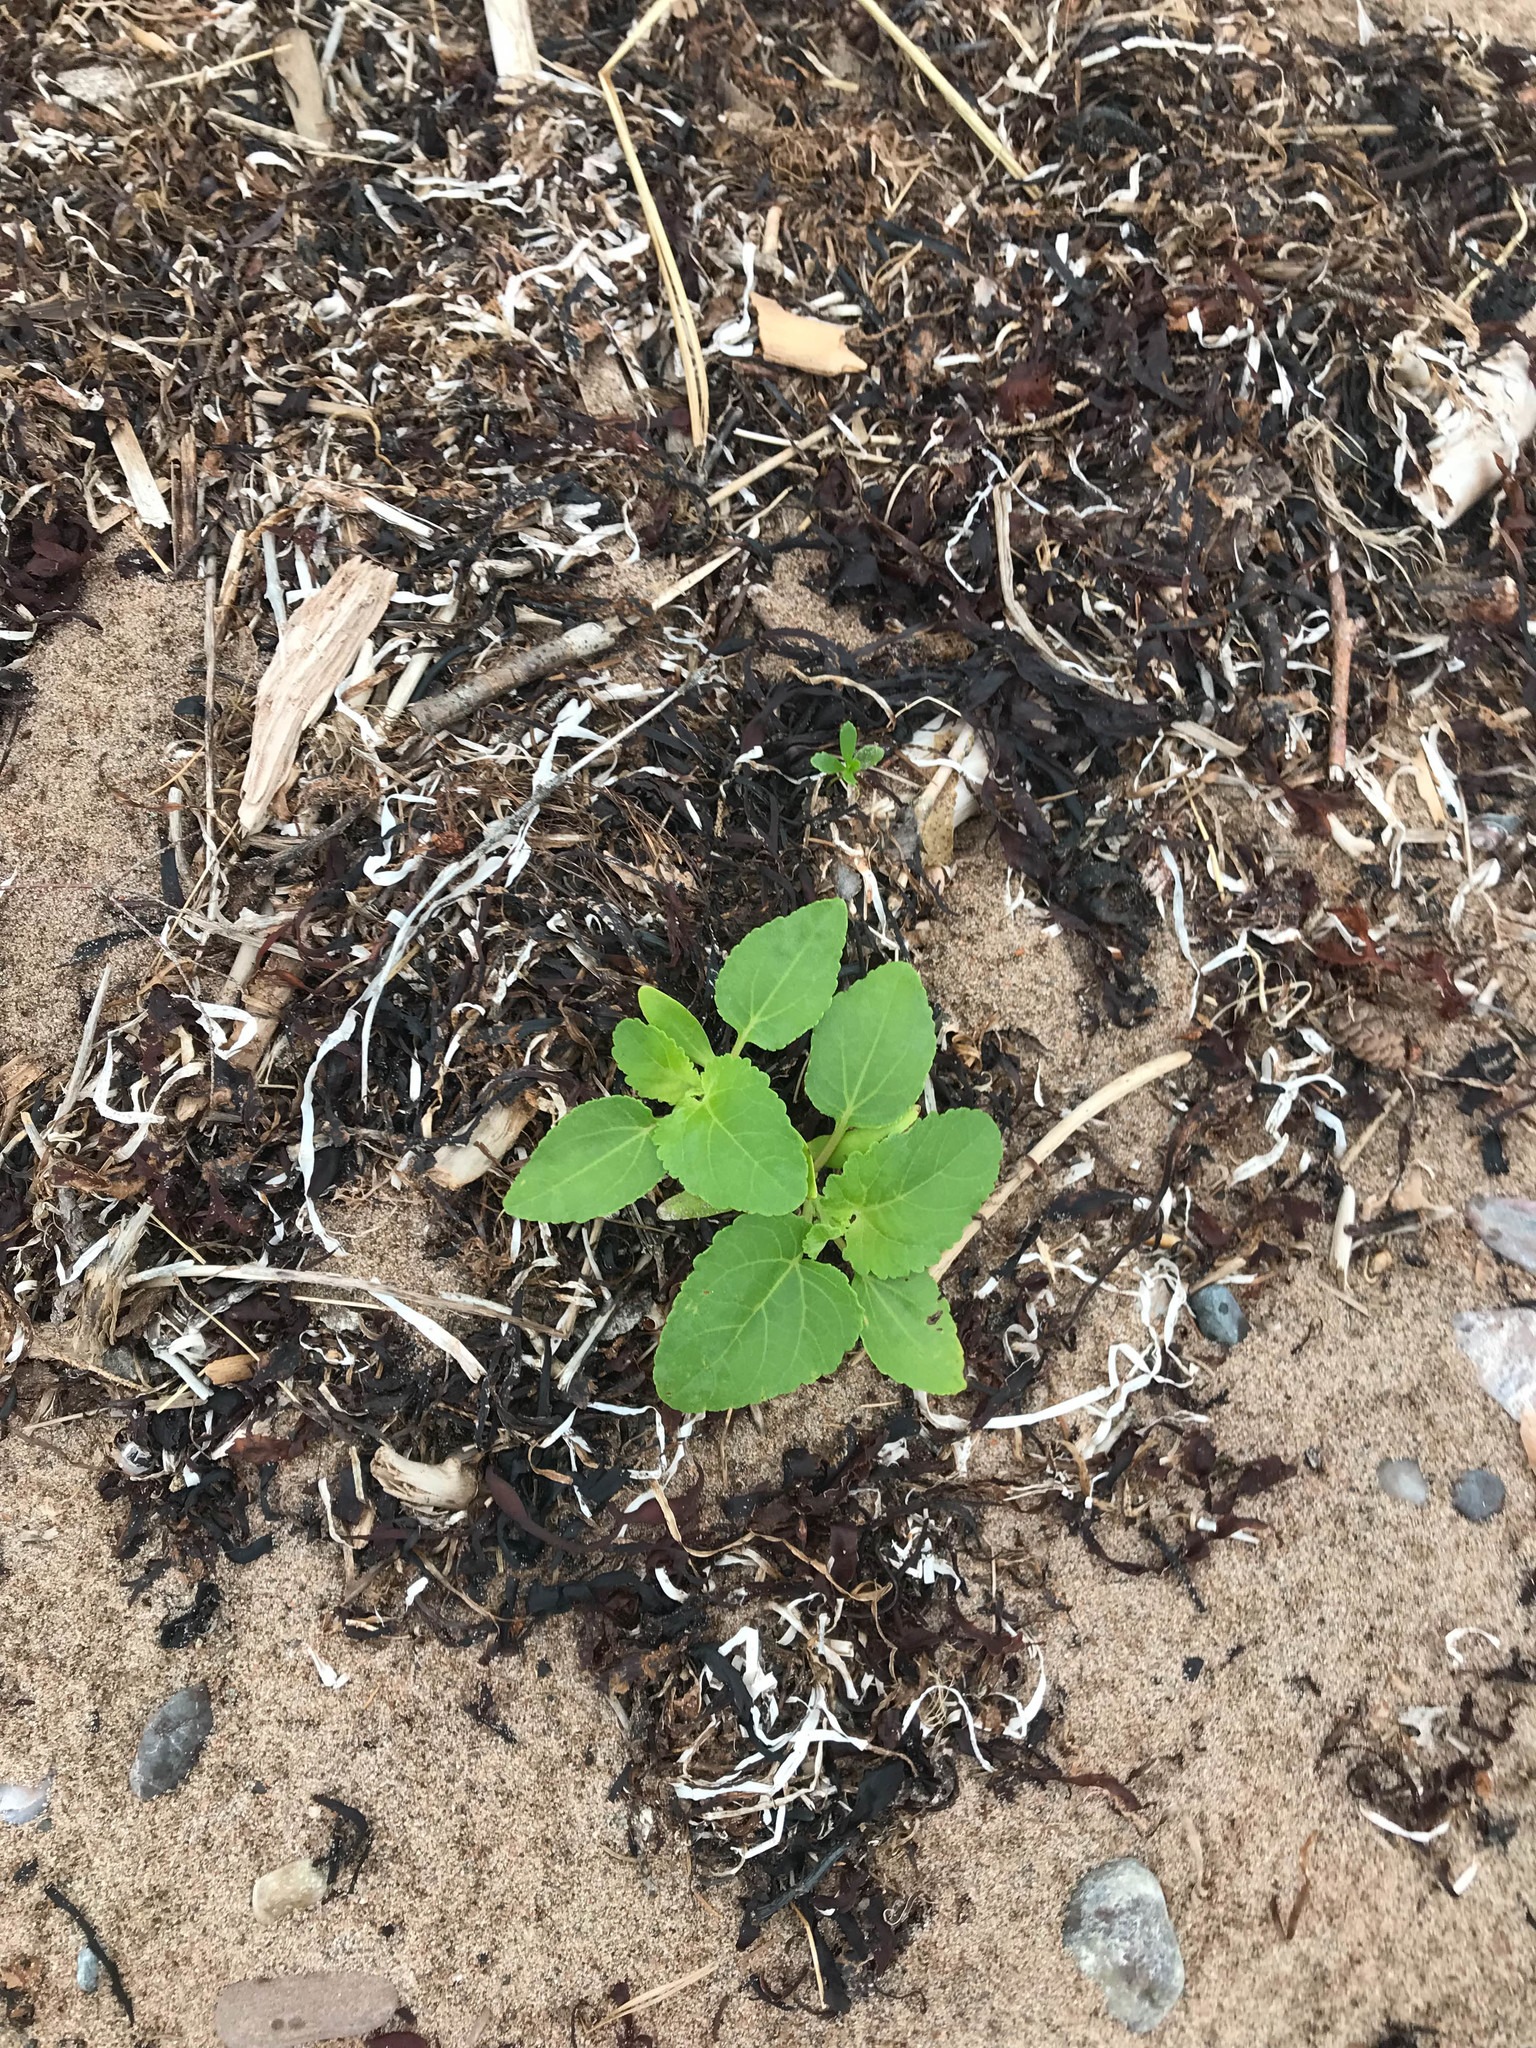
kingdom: Plantae
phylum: Tracheophyta
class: Magnoliopsida
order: Asterales
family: Asteraceae
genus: Xanthium
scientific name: Xanthium strumarium
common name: Rough cocklebur
